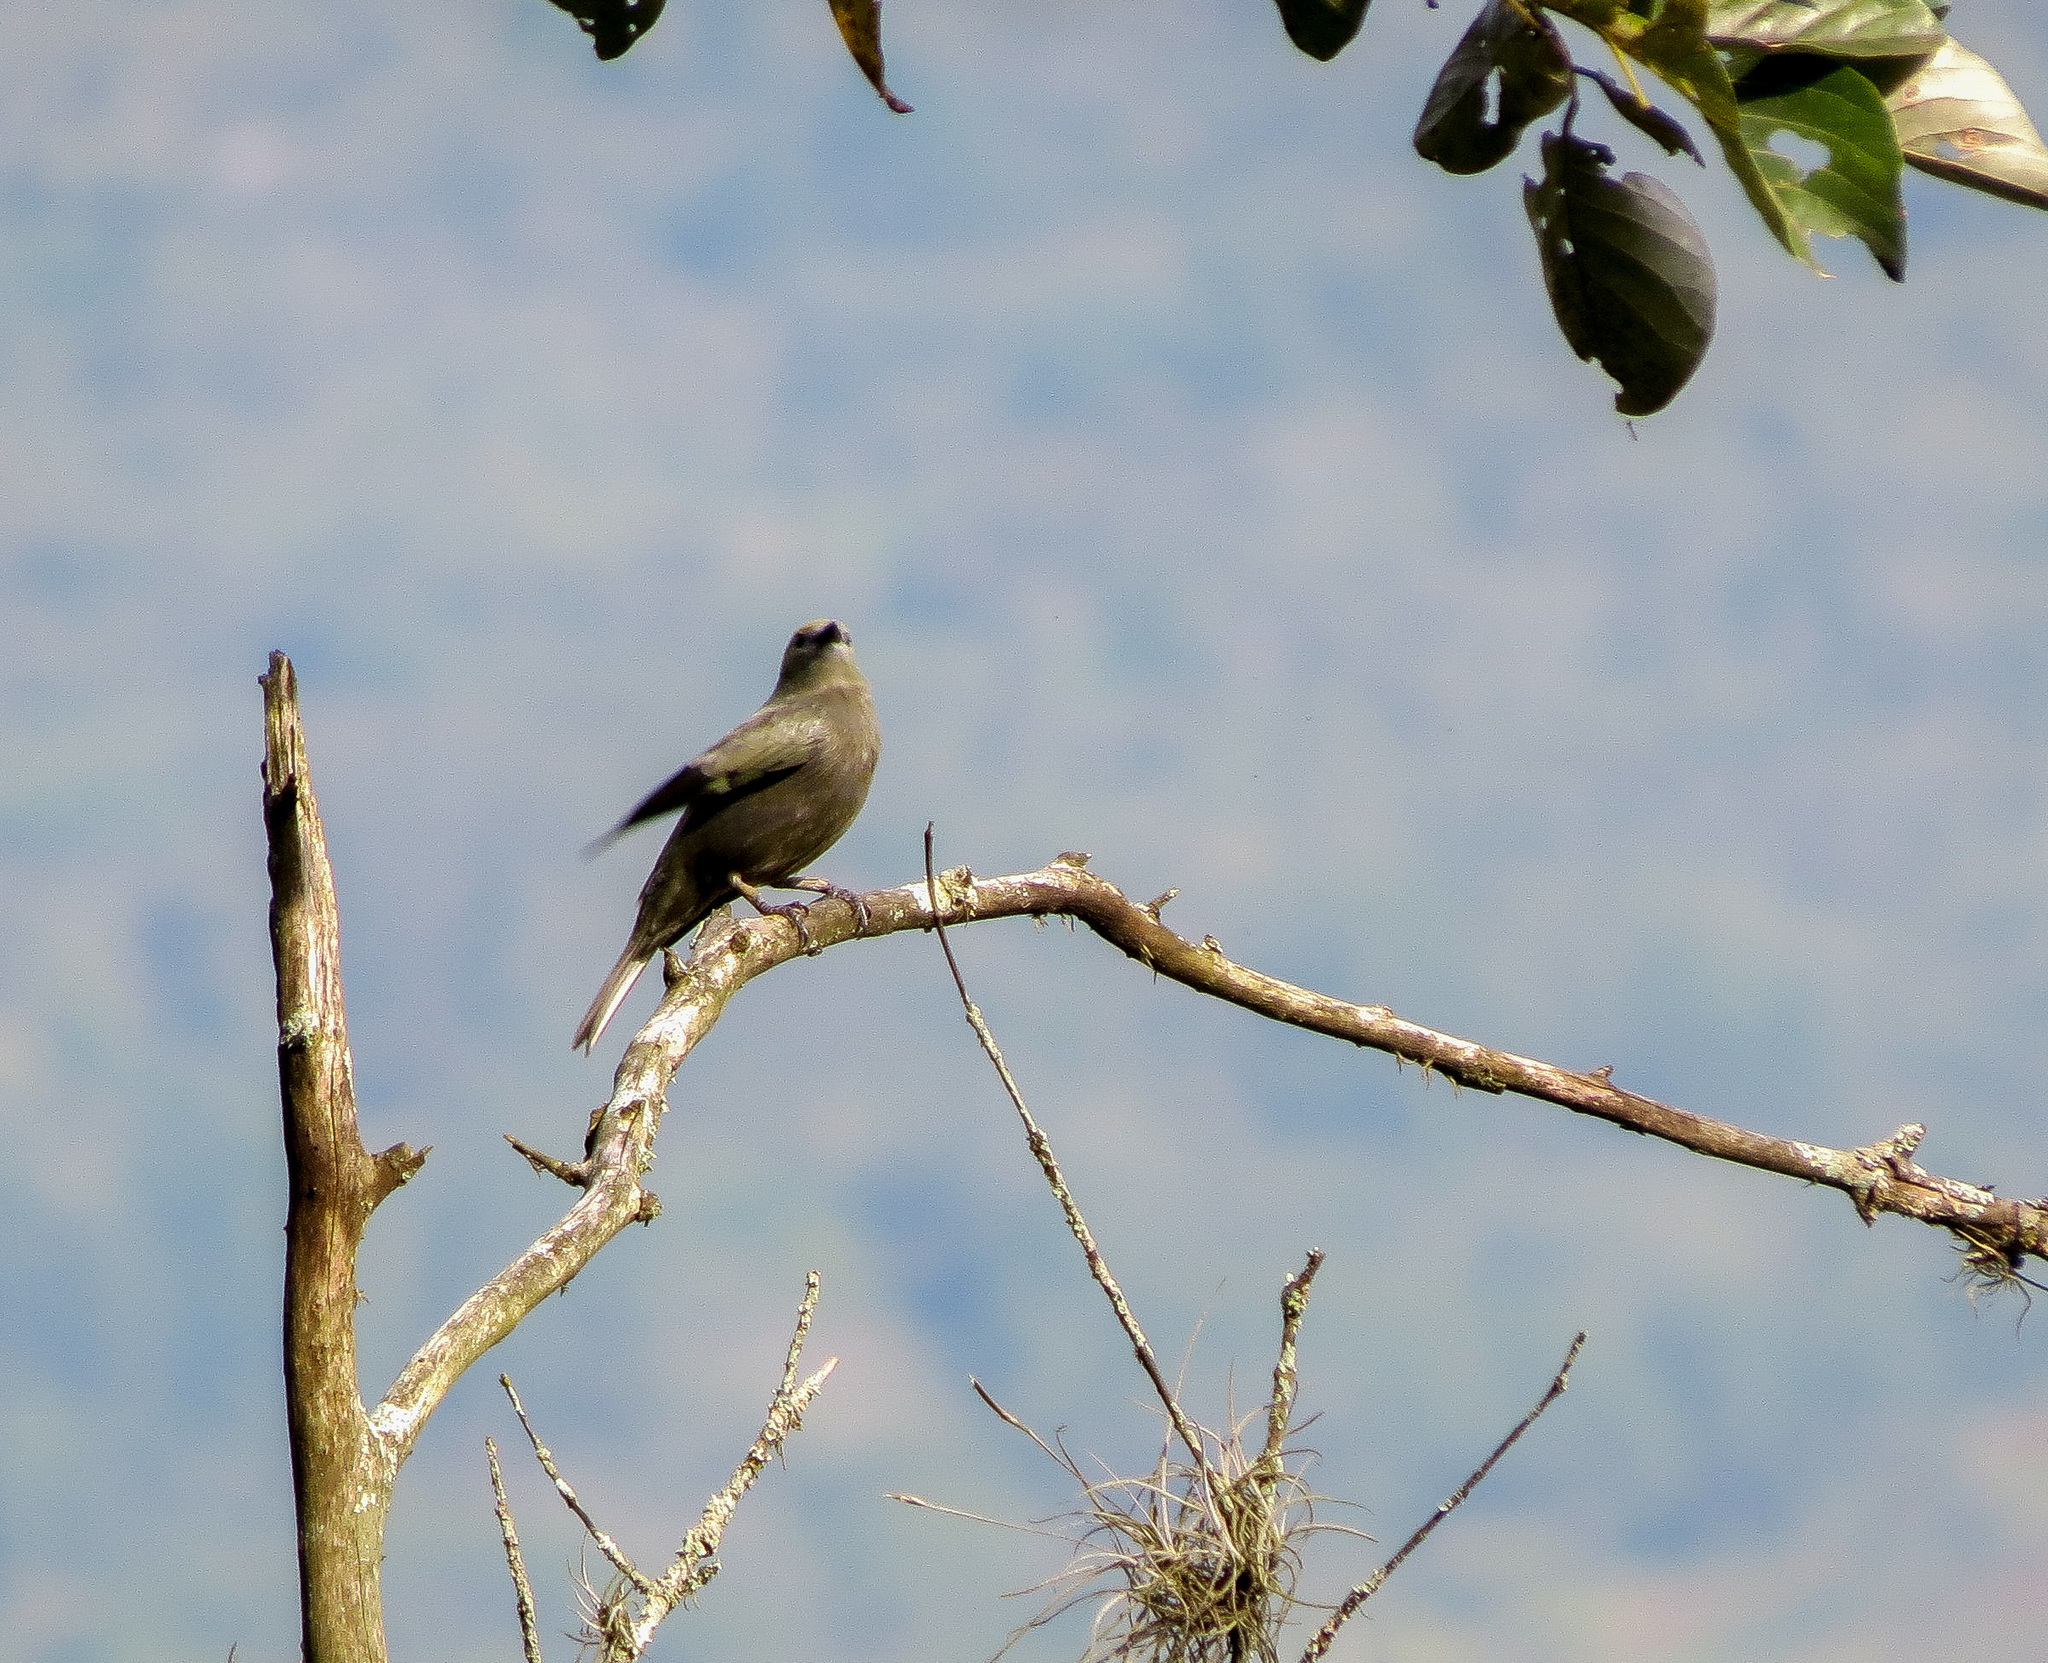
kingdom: Animalia
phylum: Chordata
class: Aves
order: Passeriformes
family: Thraupidae
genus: Thraupis
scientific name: Thraupis palmarum
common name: Palm tanager
